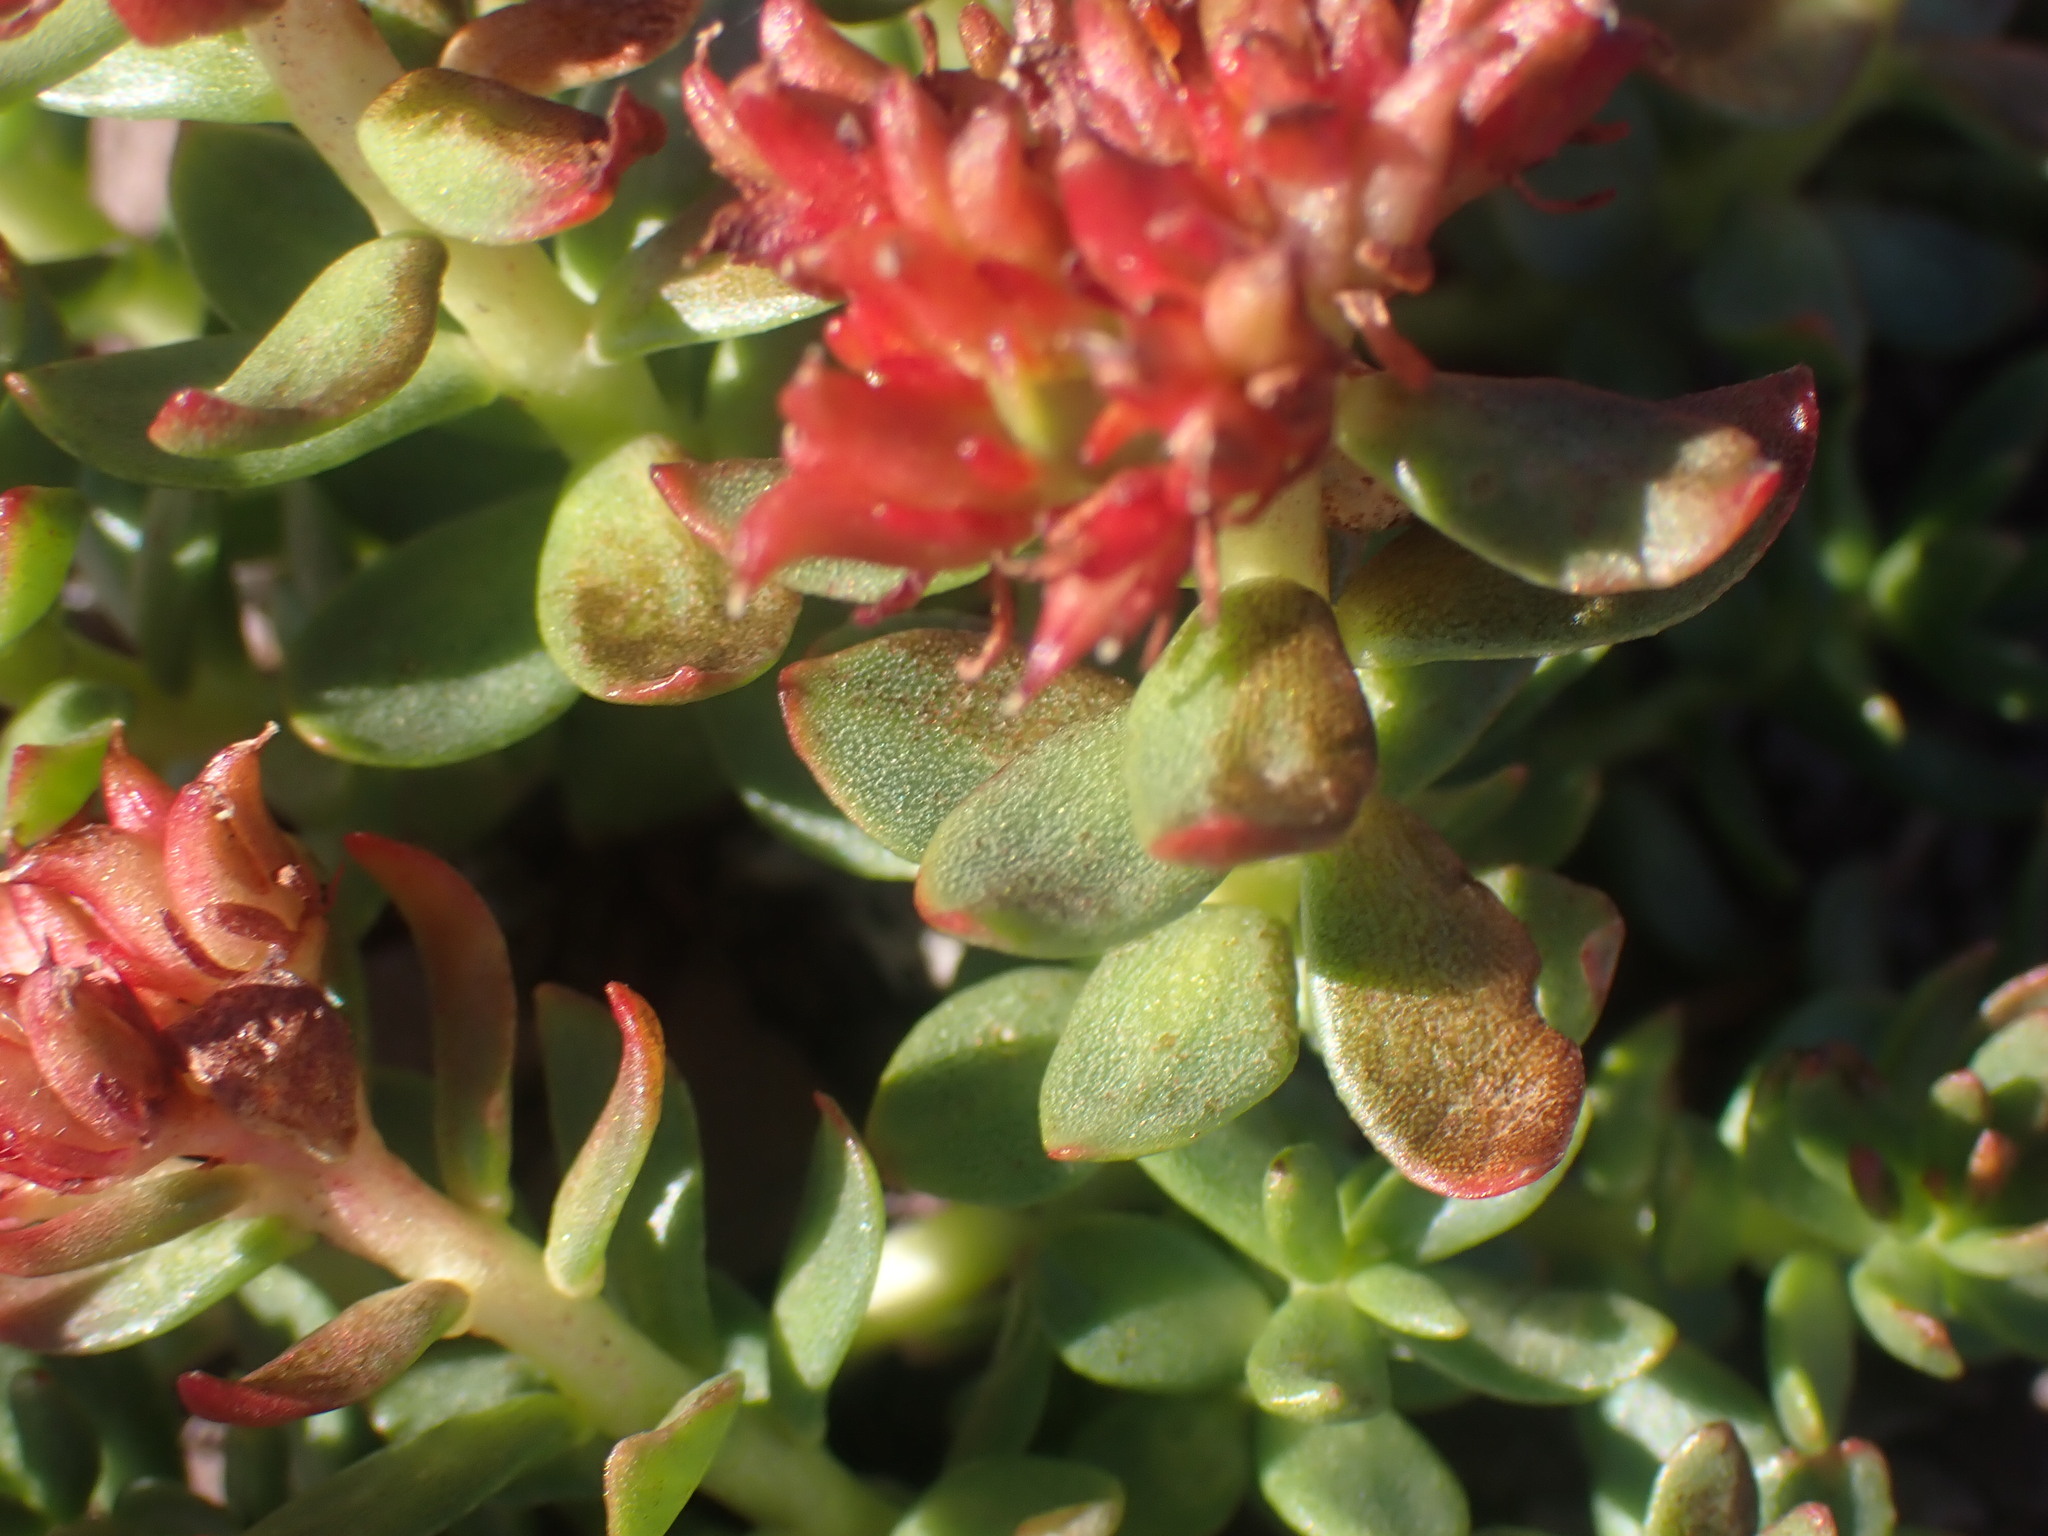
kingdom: Plantae
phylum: Tracheophyta
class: Magnoliopsida
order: Saxifragales
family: Crassulaceae
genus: Rhodiola
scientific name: Rhodiola integrifolia
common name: Western roseroot
